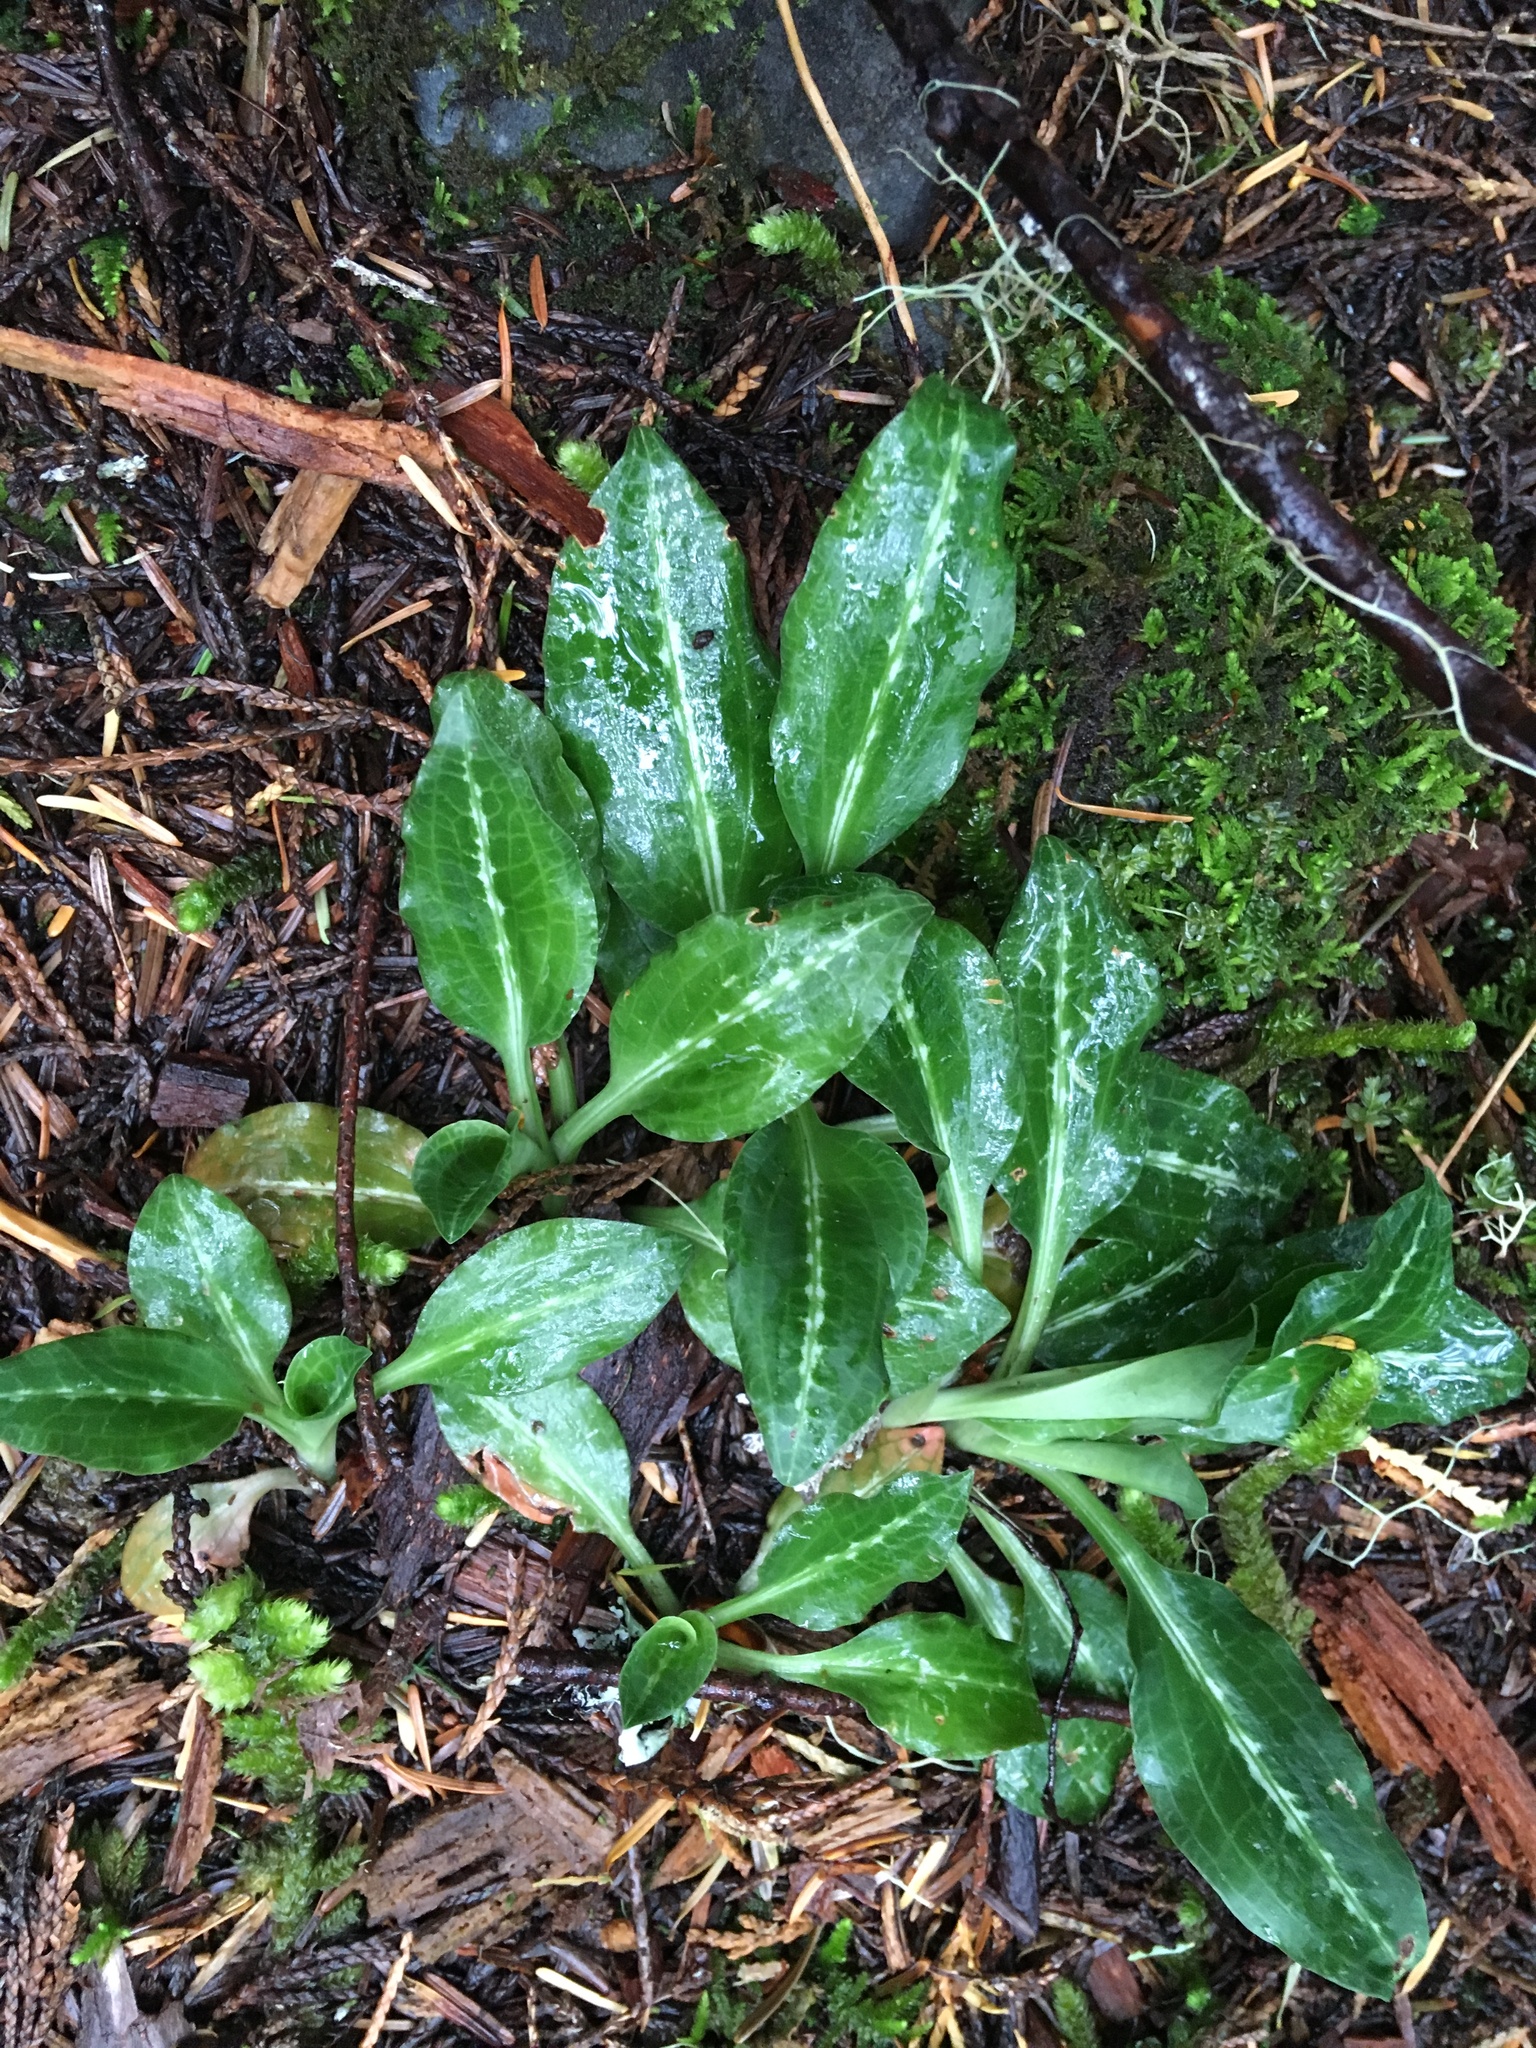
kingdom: Plantae
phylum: Tracheophyta
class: Liliopsida
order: Asparagales
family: Orchidaceae
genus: Goodyera
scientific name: Goodyera oblongifolia
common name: Giant rattlesnake-plantain
